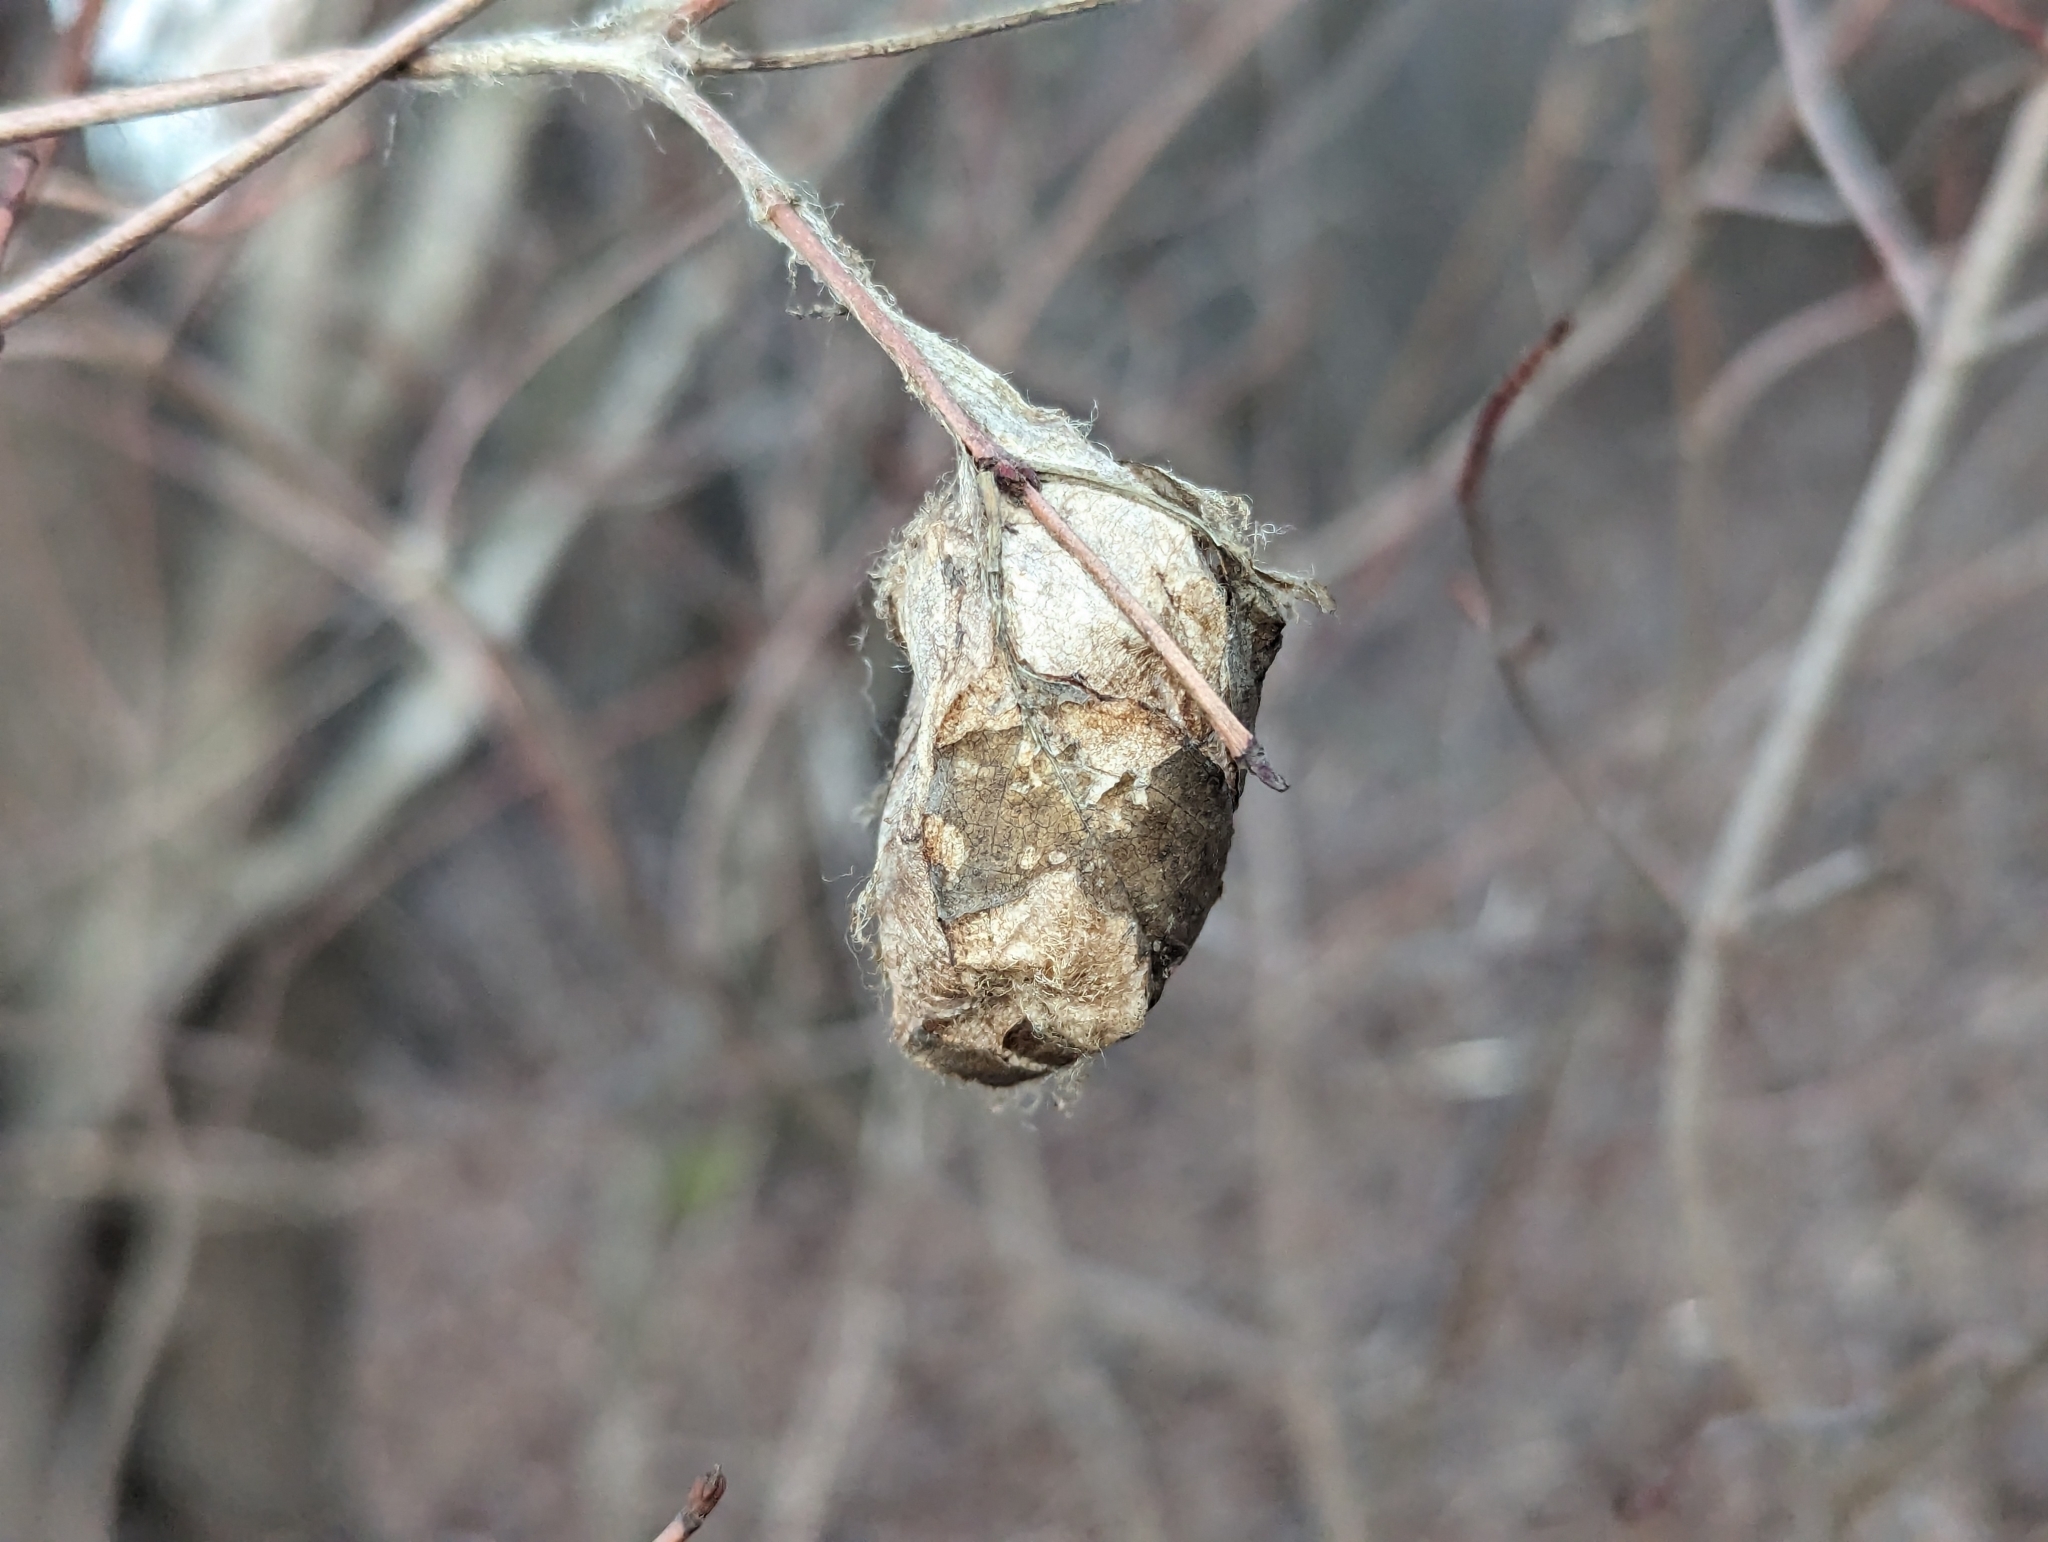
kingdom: Animalia
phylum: Arthropoda
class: Insecta
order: Lepidoptera
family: Saturniidae
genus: Antheraea
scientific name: Antheraea polyphemus
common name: Polyphemus moth
